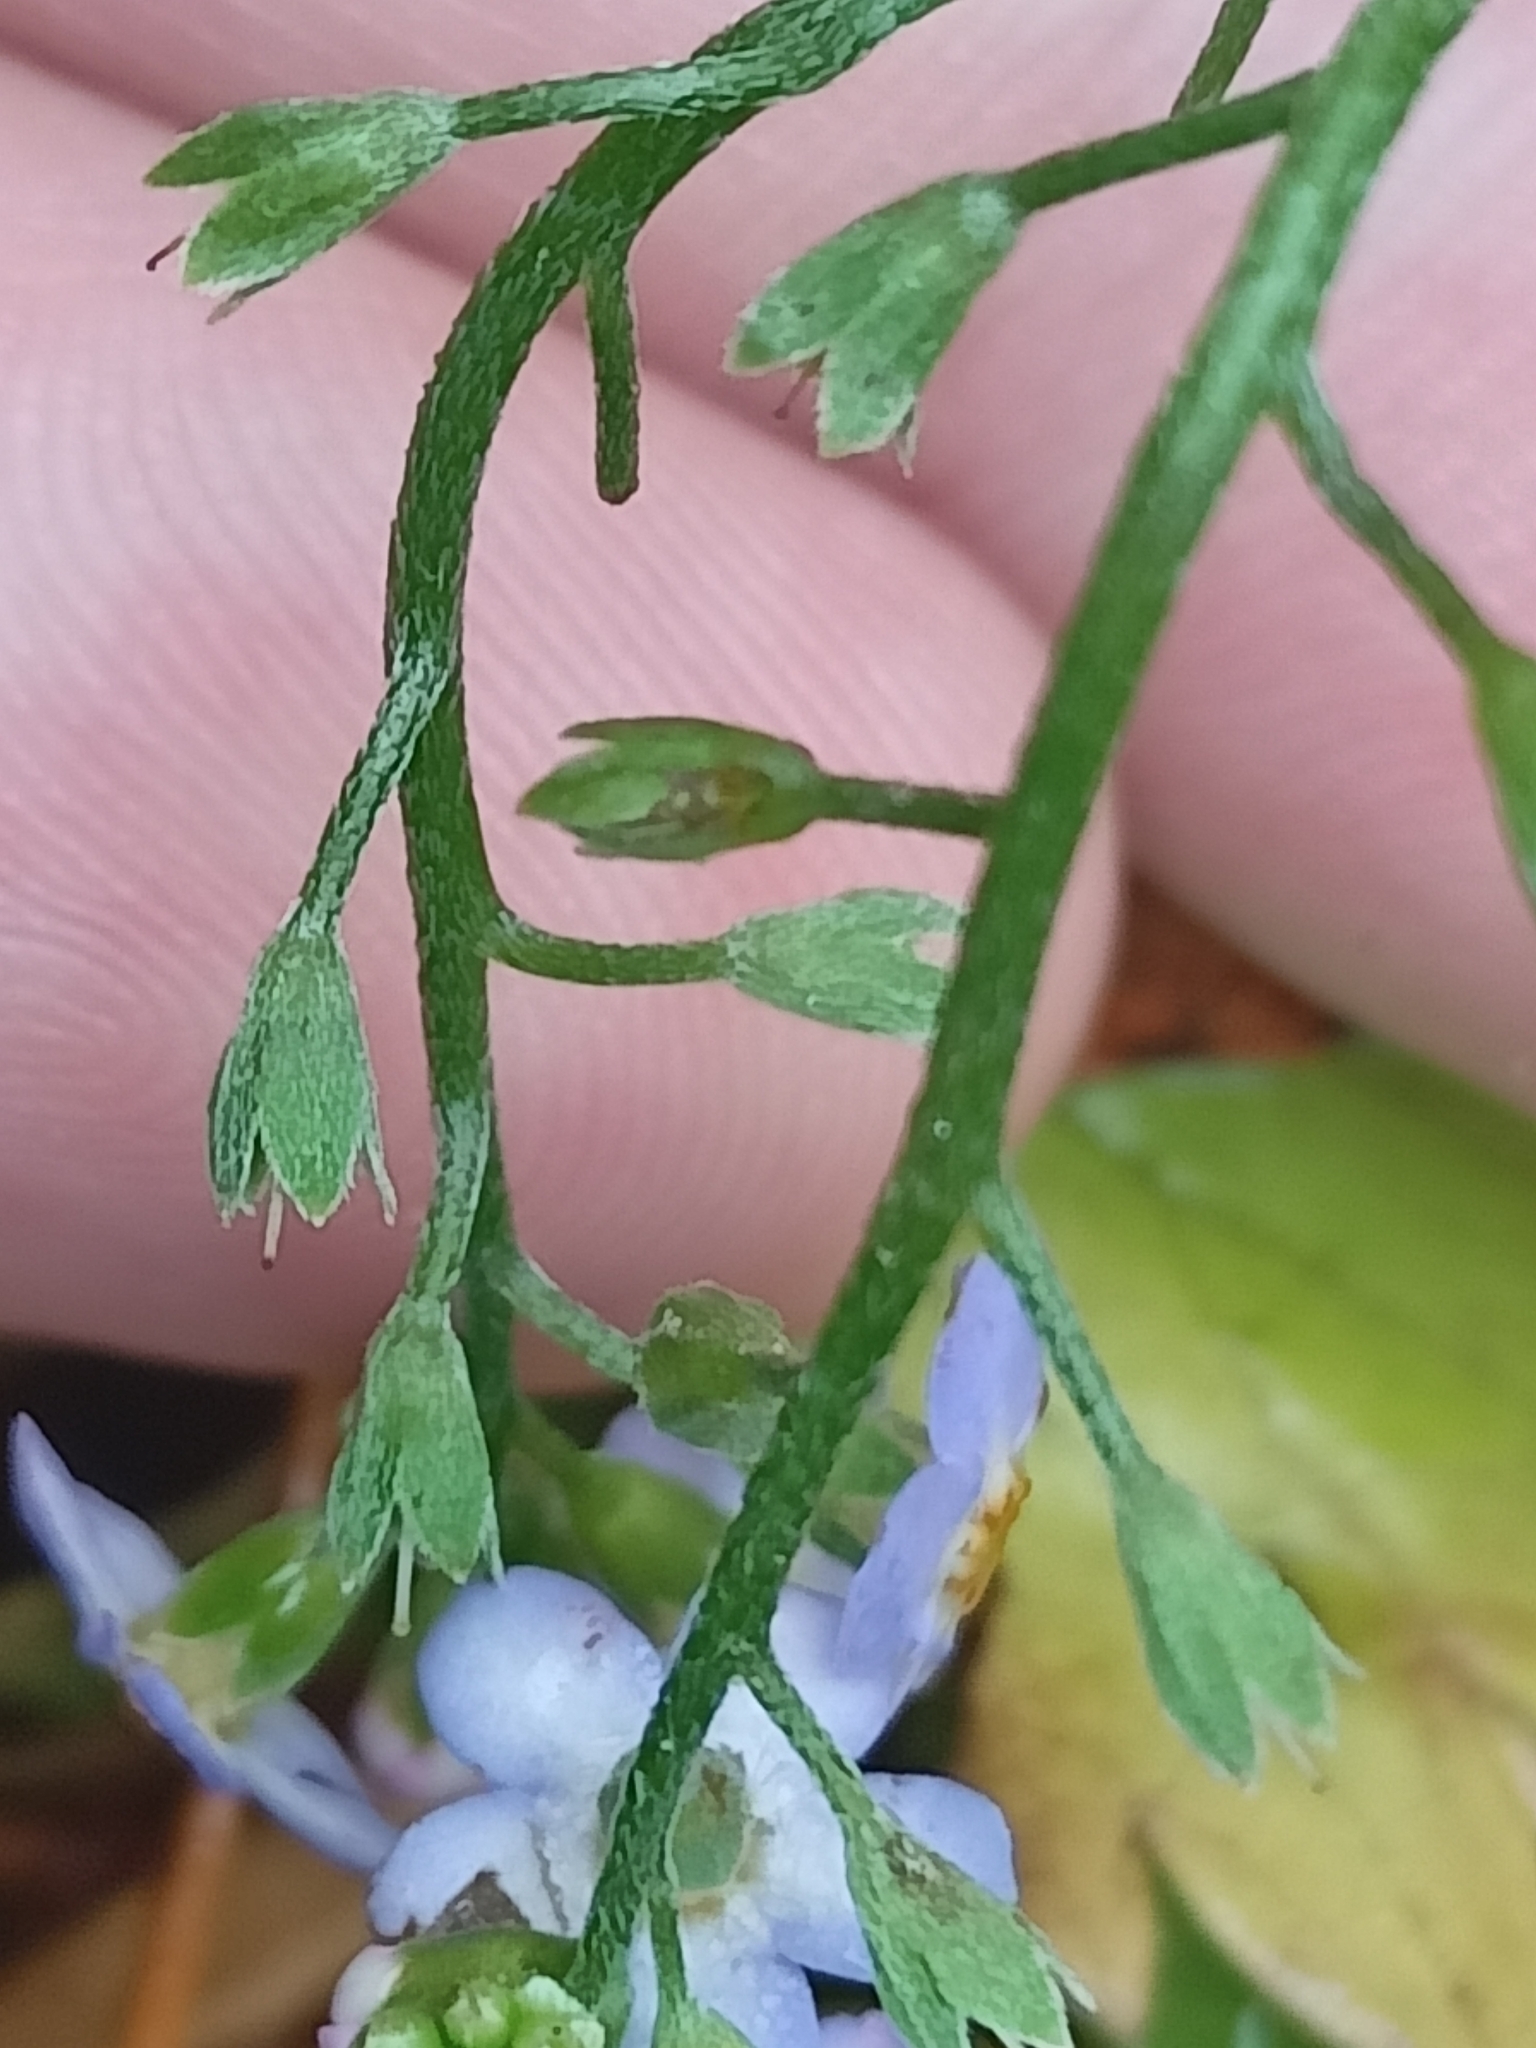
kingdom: Plantae
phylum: Tracheophyta
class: Magnoliopsida
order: Boraginales
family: Boraginaceae
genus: Myosotis
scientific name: Myosotis scorpioides
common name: Water forget-me-not
